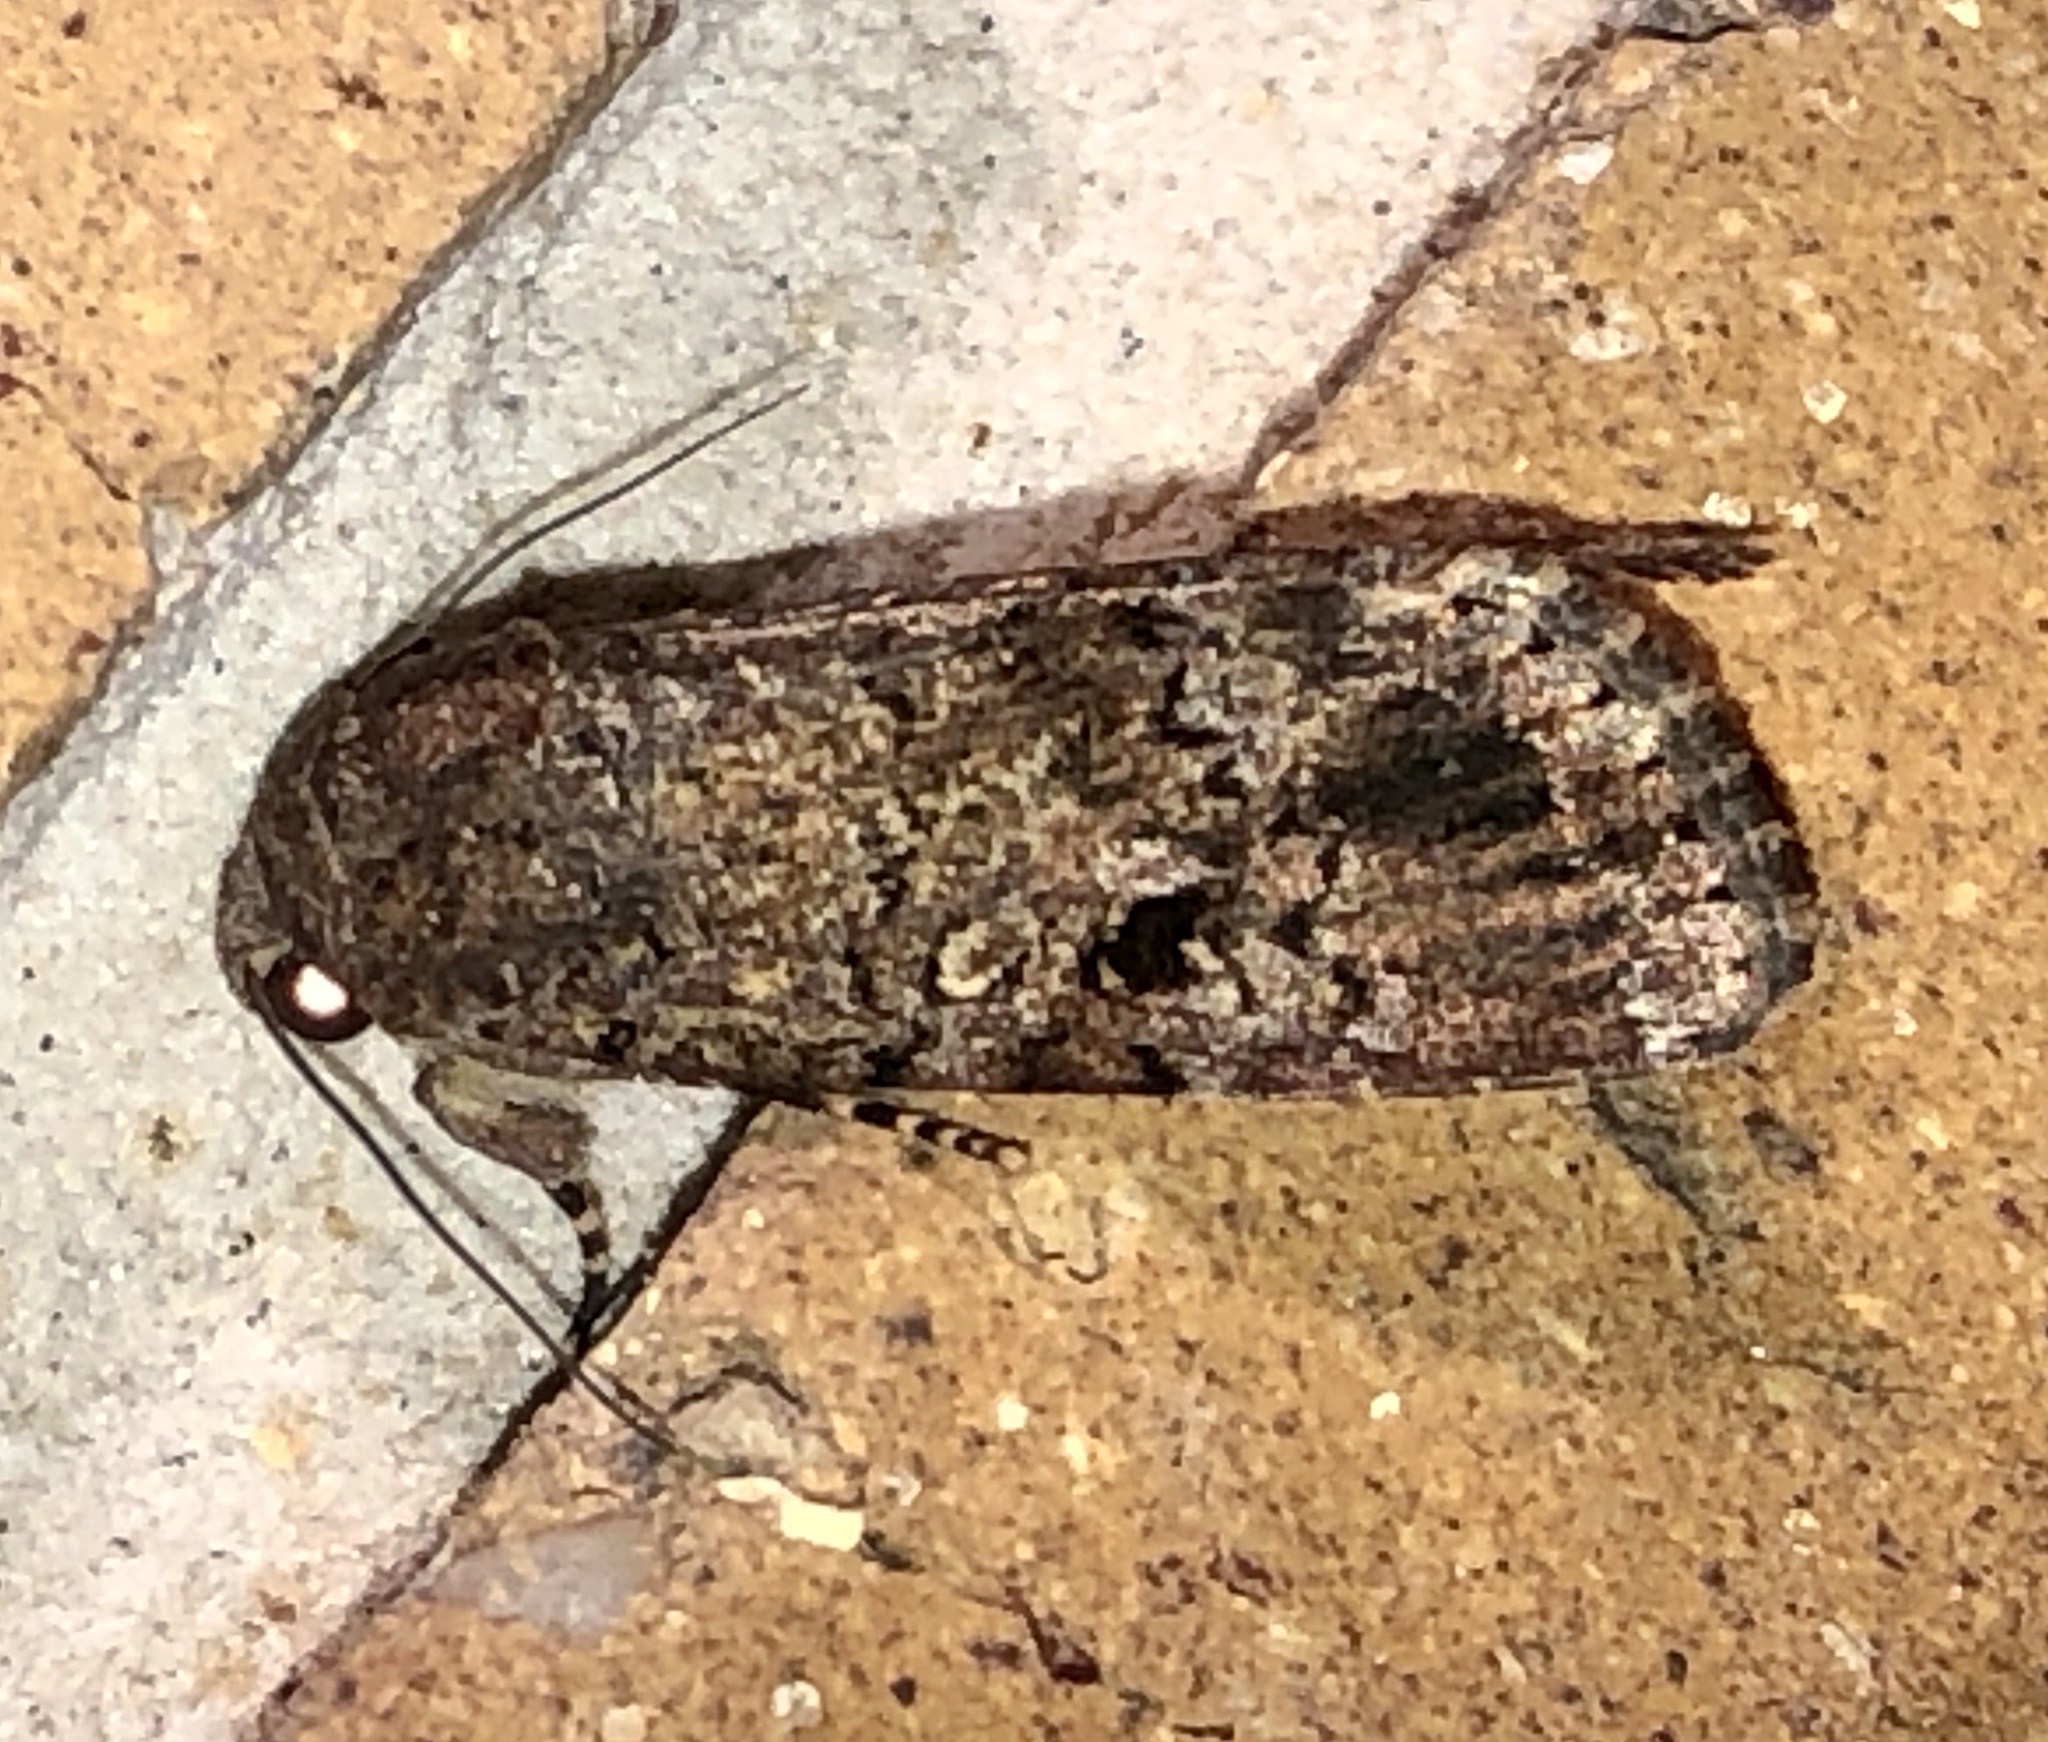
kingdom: Animalia
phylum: Arthropoda
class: Insecta
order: Lepidoptera
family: Noctuidae
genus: Spodoptera
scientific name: Spodoptera mauritia
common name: Lawn armyworm
